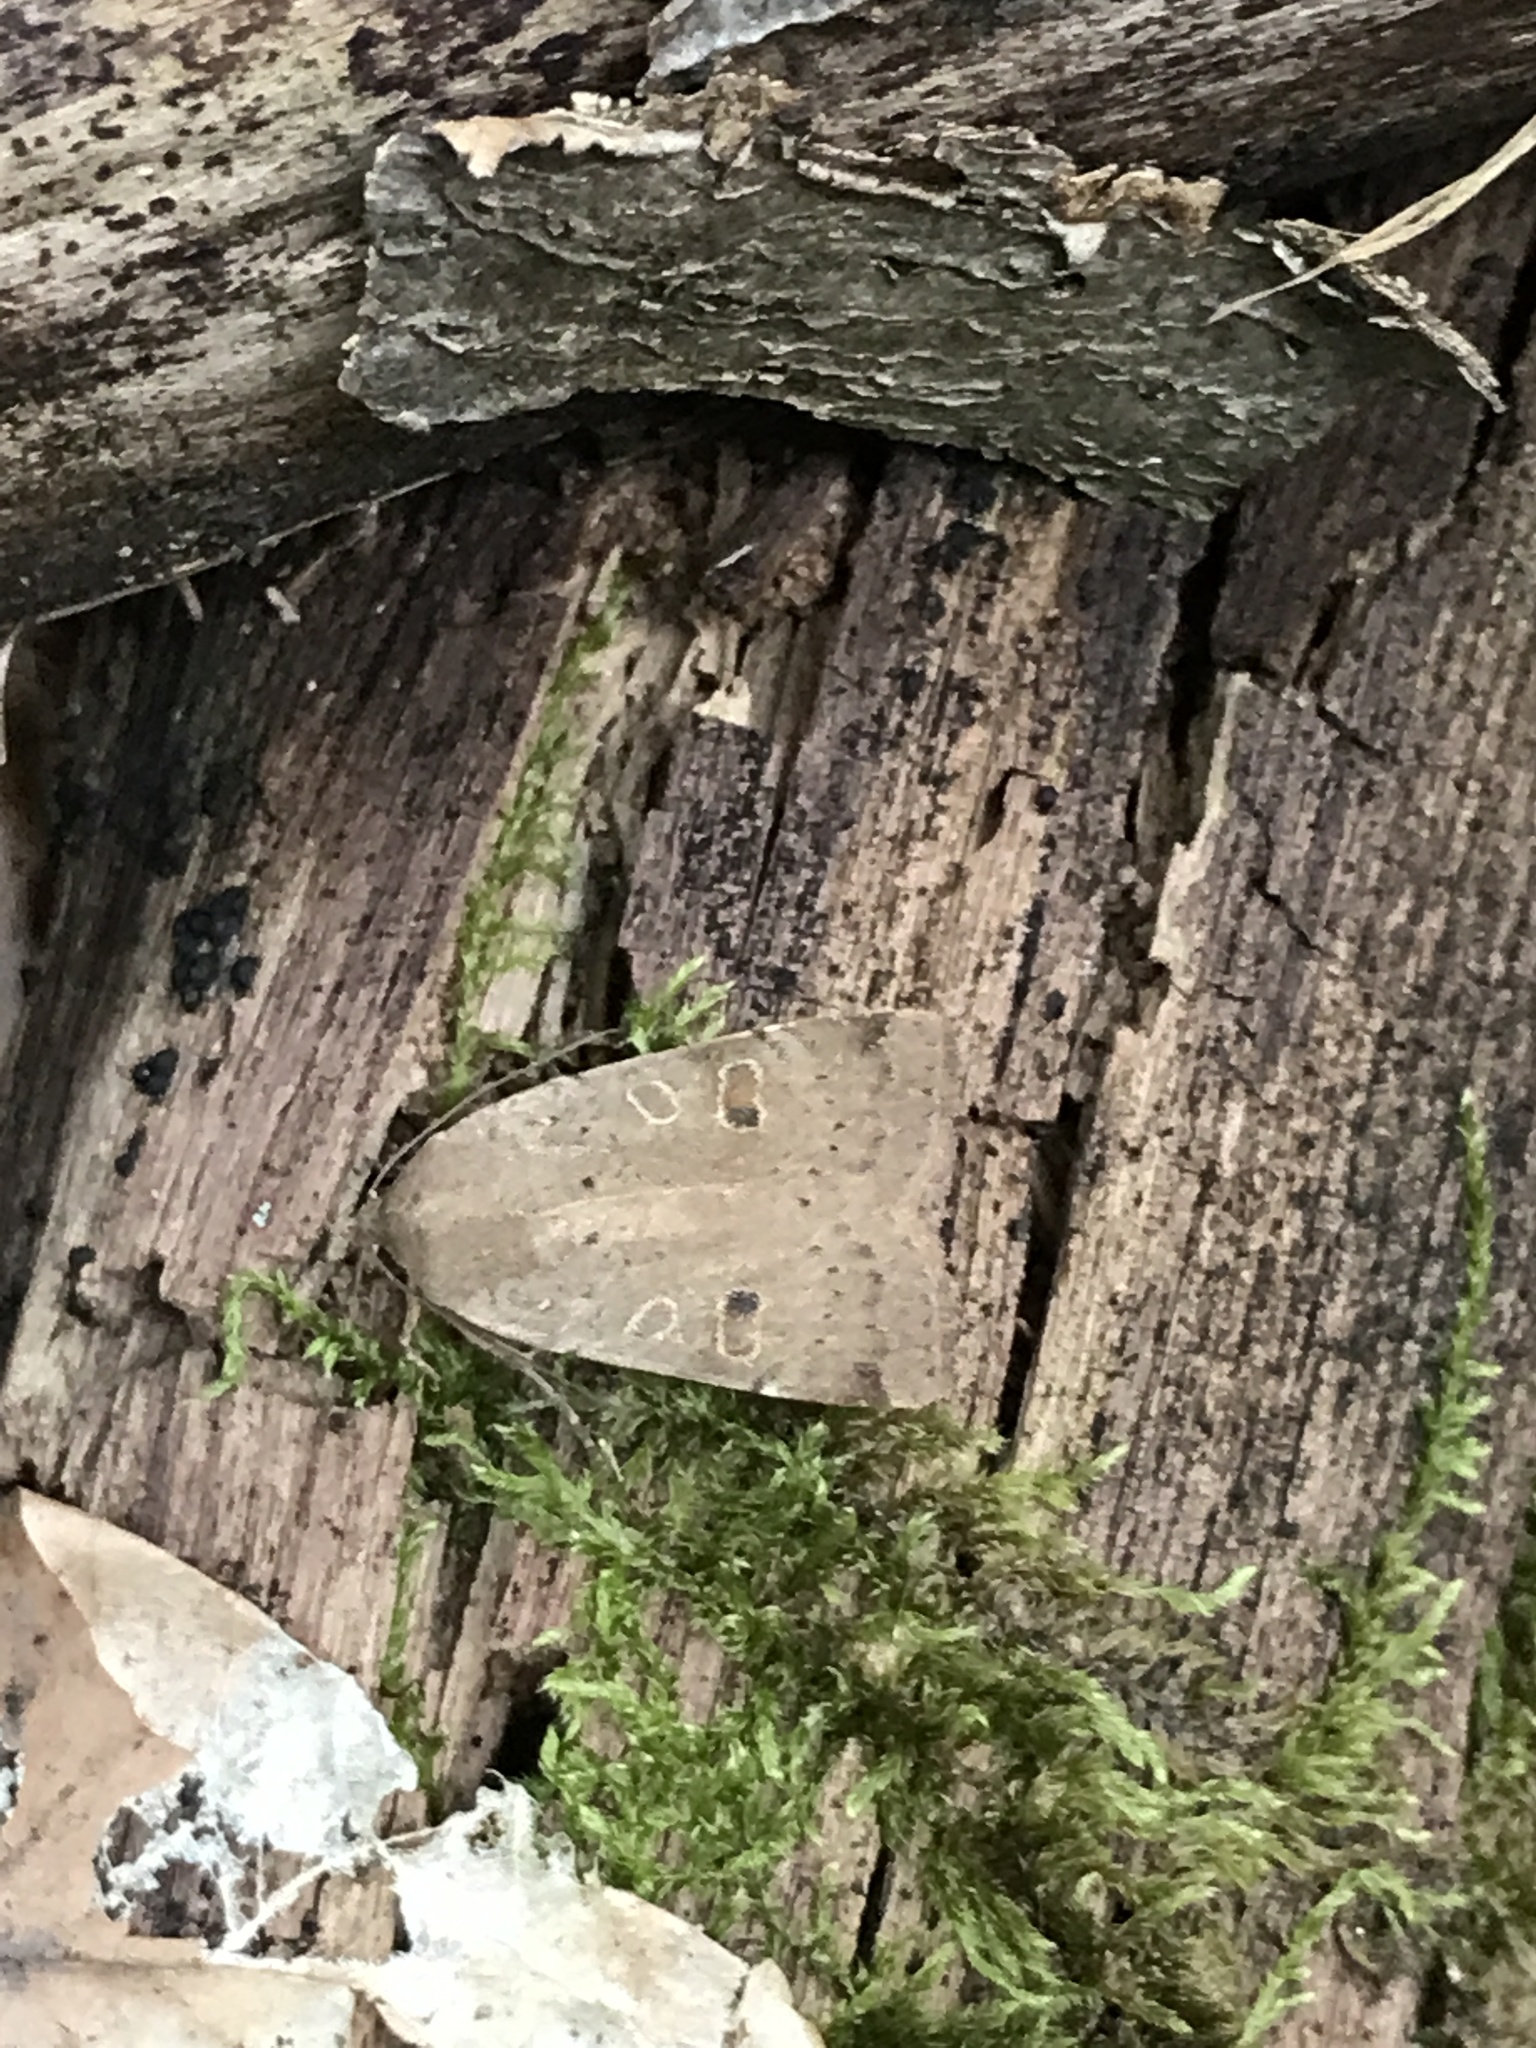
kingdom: Animalia
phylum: Arthropoda
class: Insecta
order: Lepidoptera
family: Noctuidae
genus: Noctua
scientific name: Noctua comes
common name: Lesser yellow underwing
